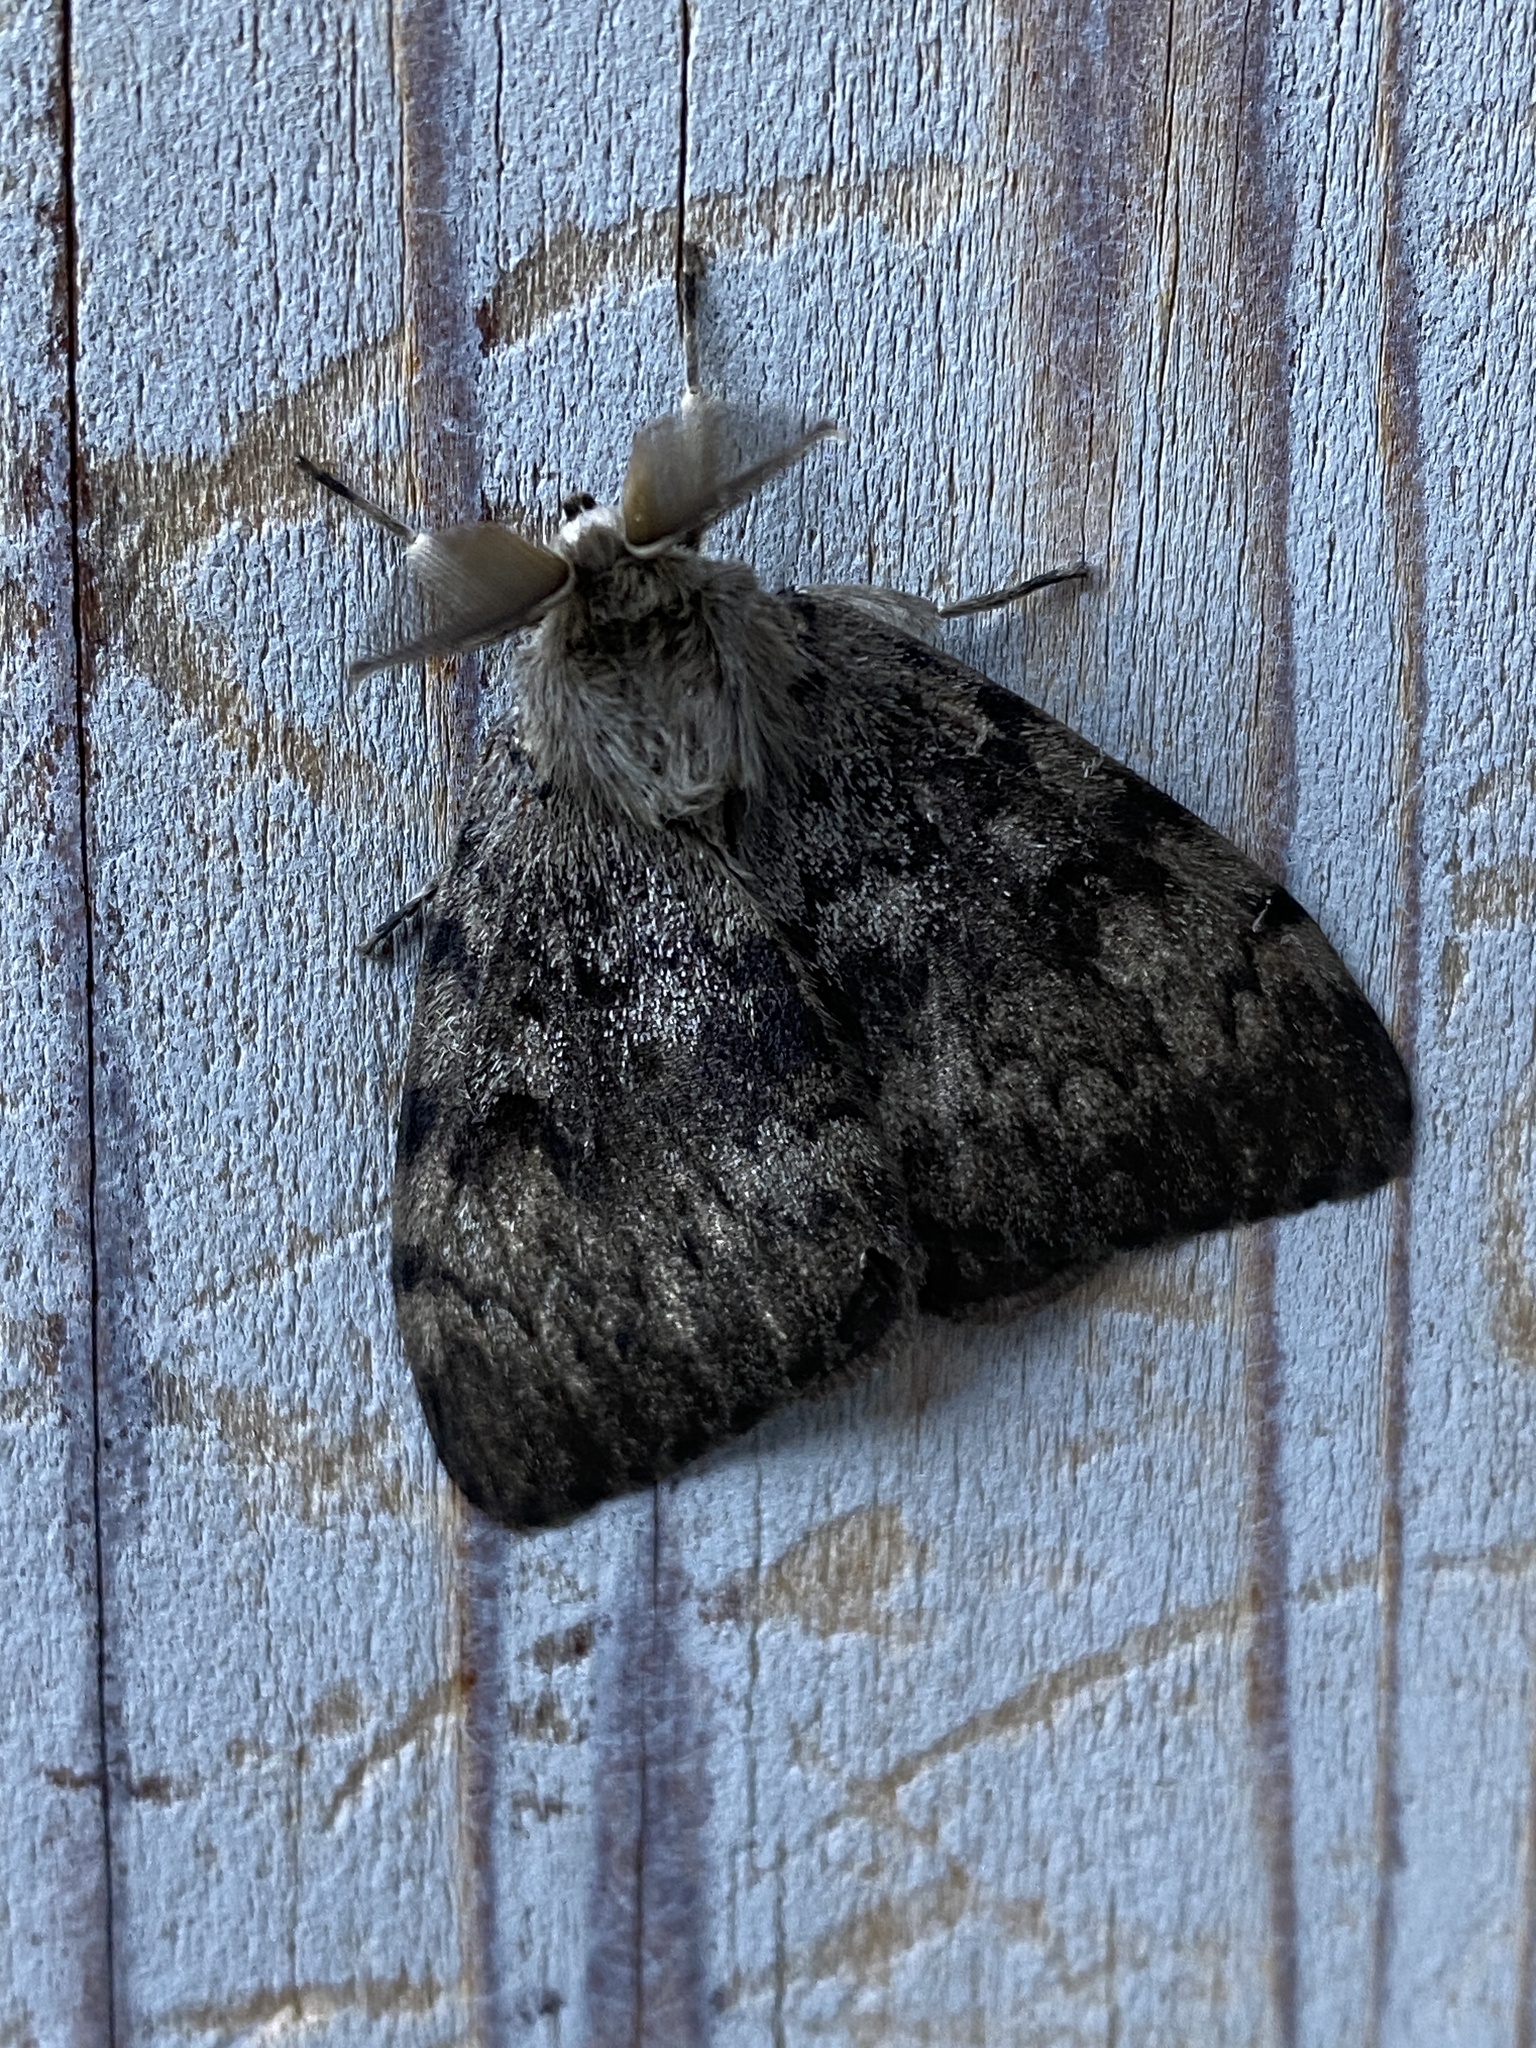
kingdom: Animalia
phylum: Arthropoda
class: Insecta
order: Lepidoptera
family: Erebidae
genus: Lymantria
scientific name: Lymantria dispar
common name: Gypsy moth
